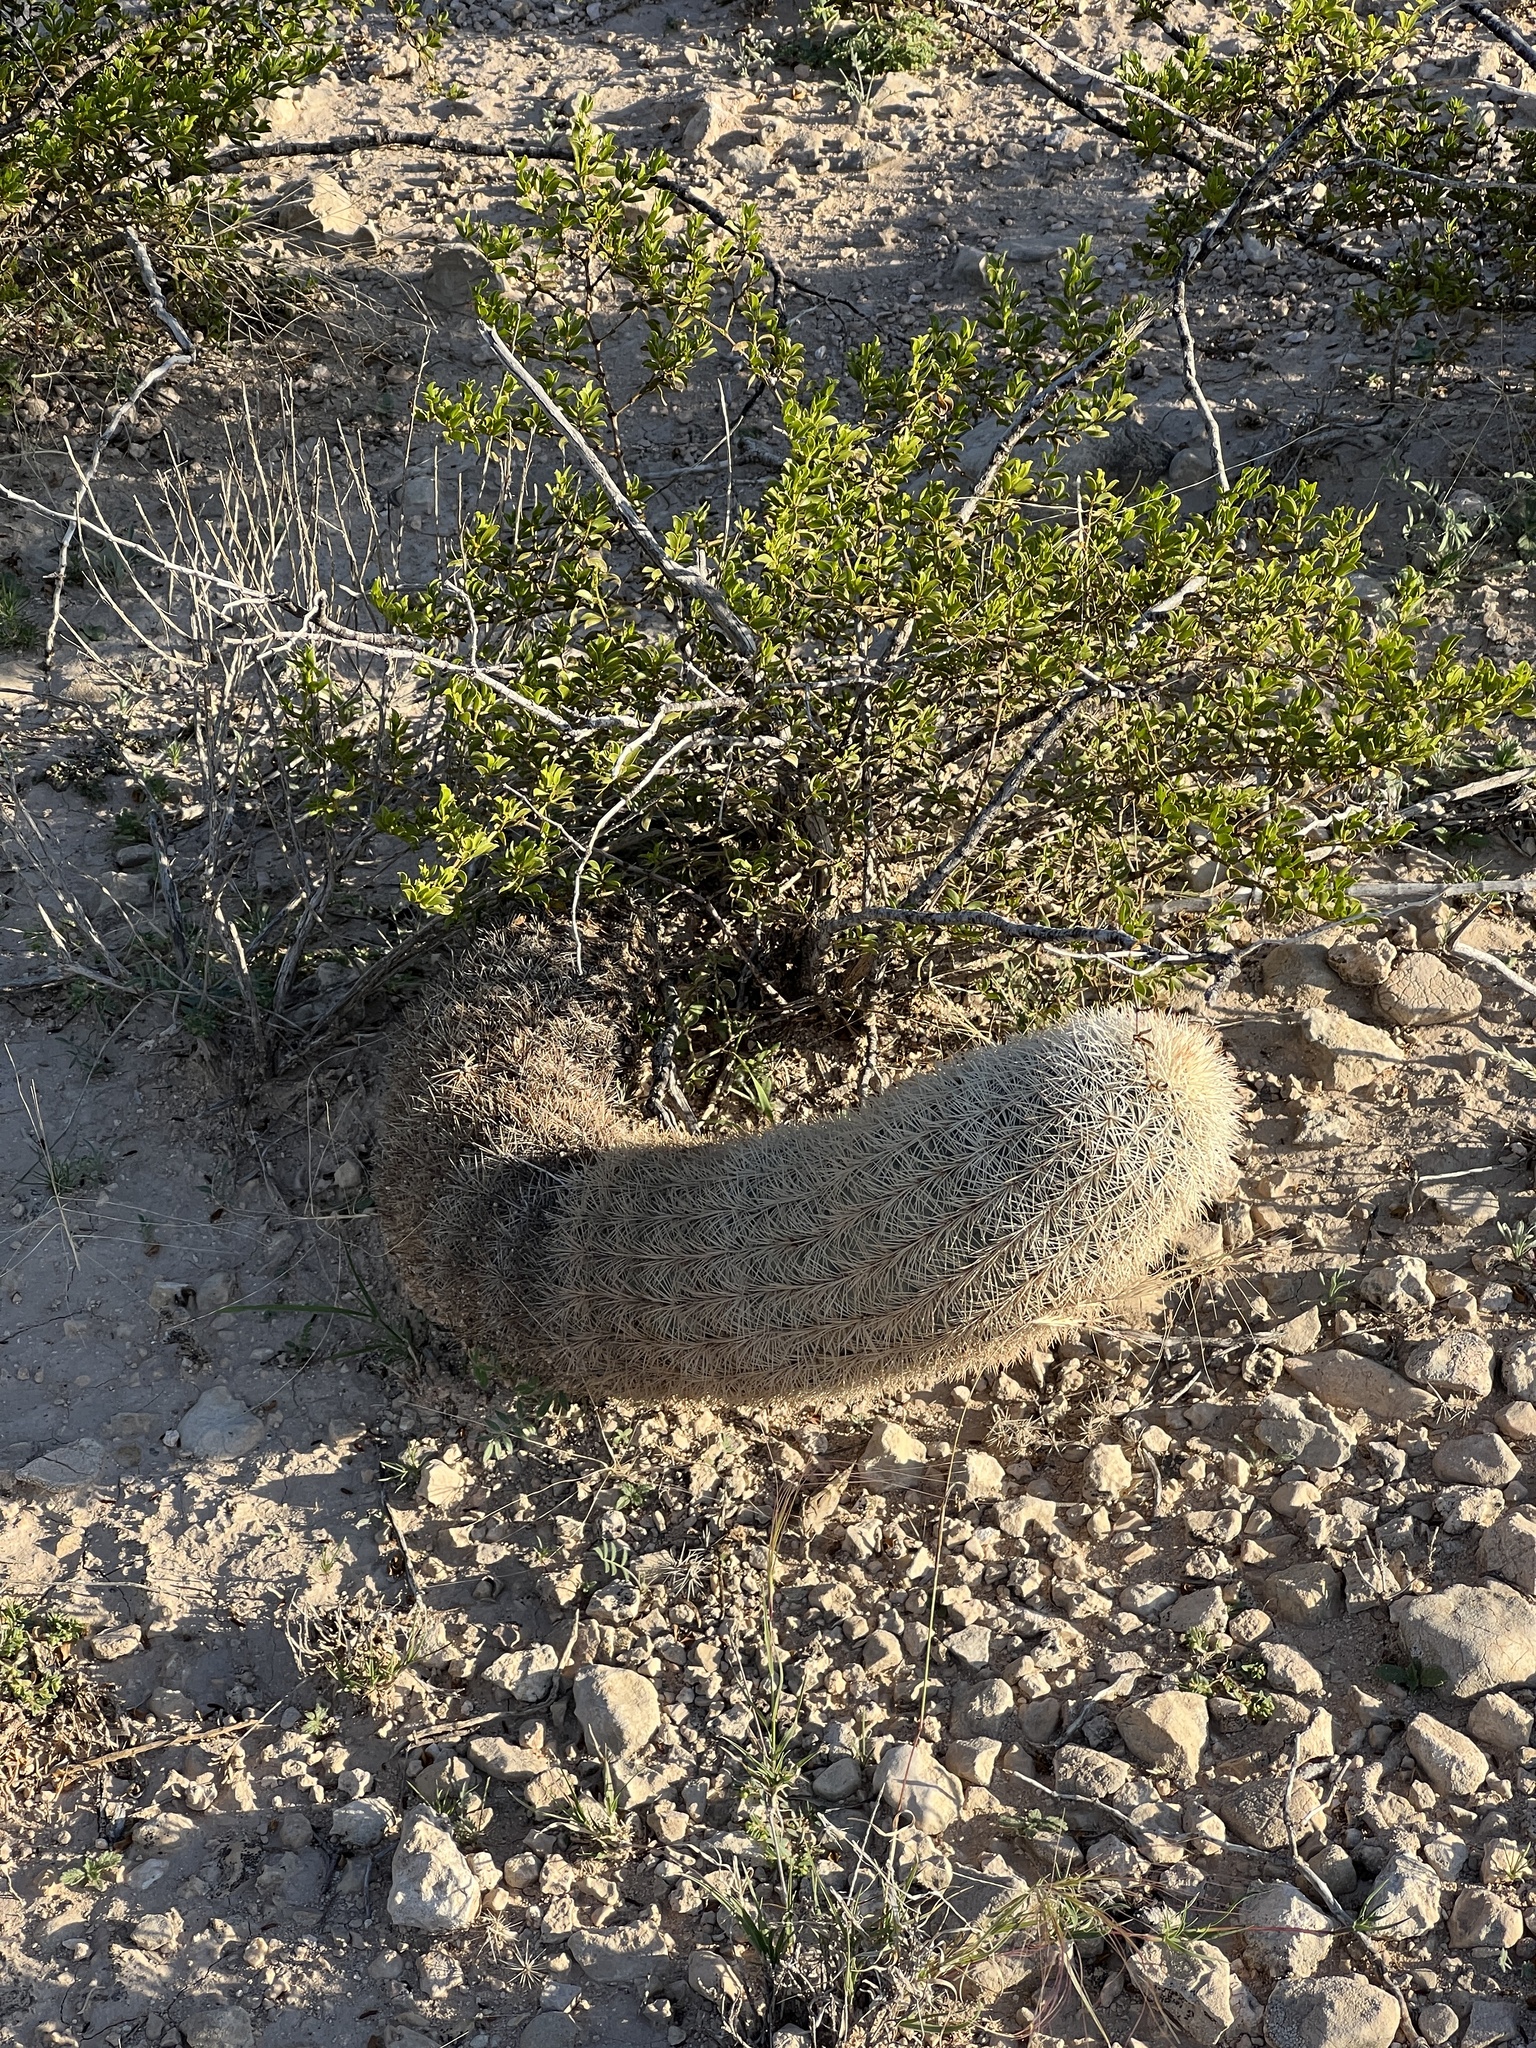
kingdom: Plantae
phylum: Tracheophyta
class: Magnoliopsida
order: Caryophyllales
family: Cactaceae
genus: Echinocereus
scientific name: Echinocereus dasyacanthus
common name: Spiny hedgehog cactus
